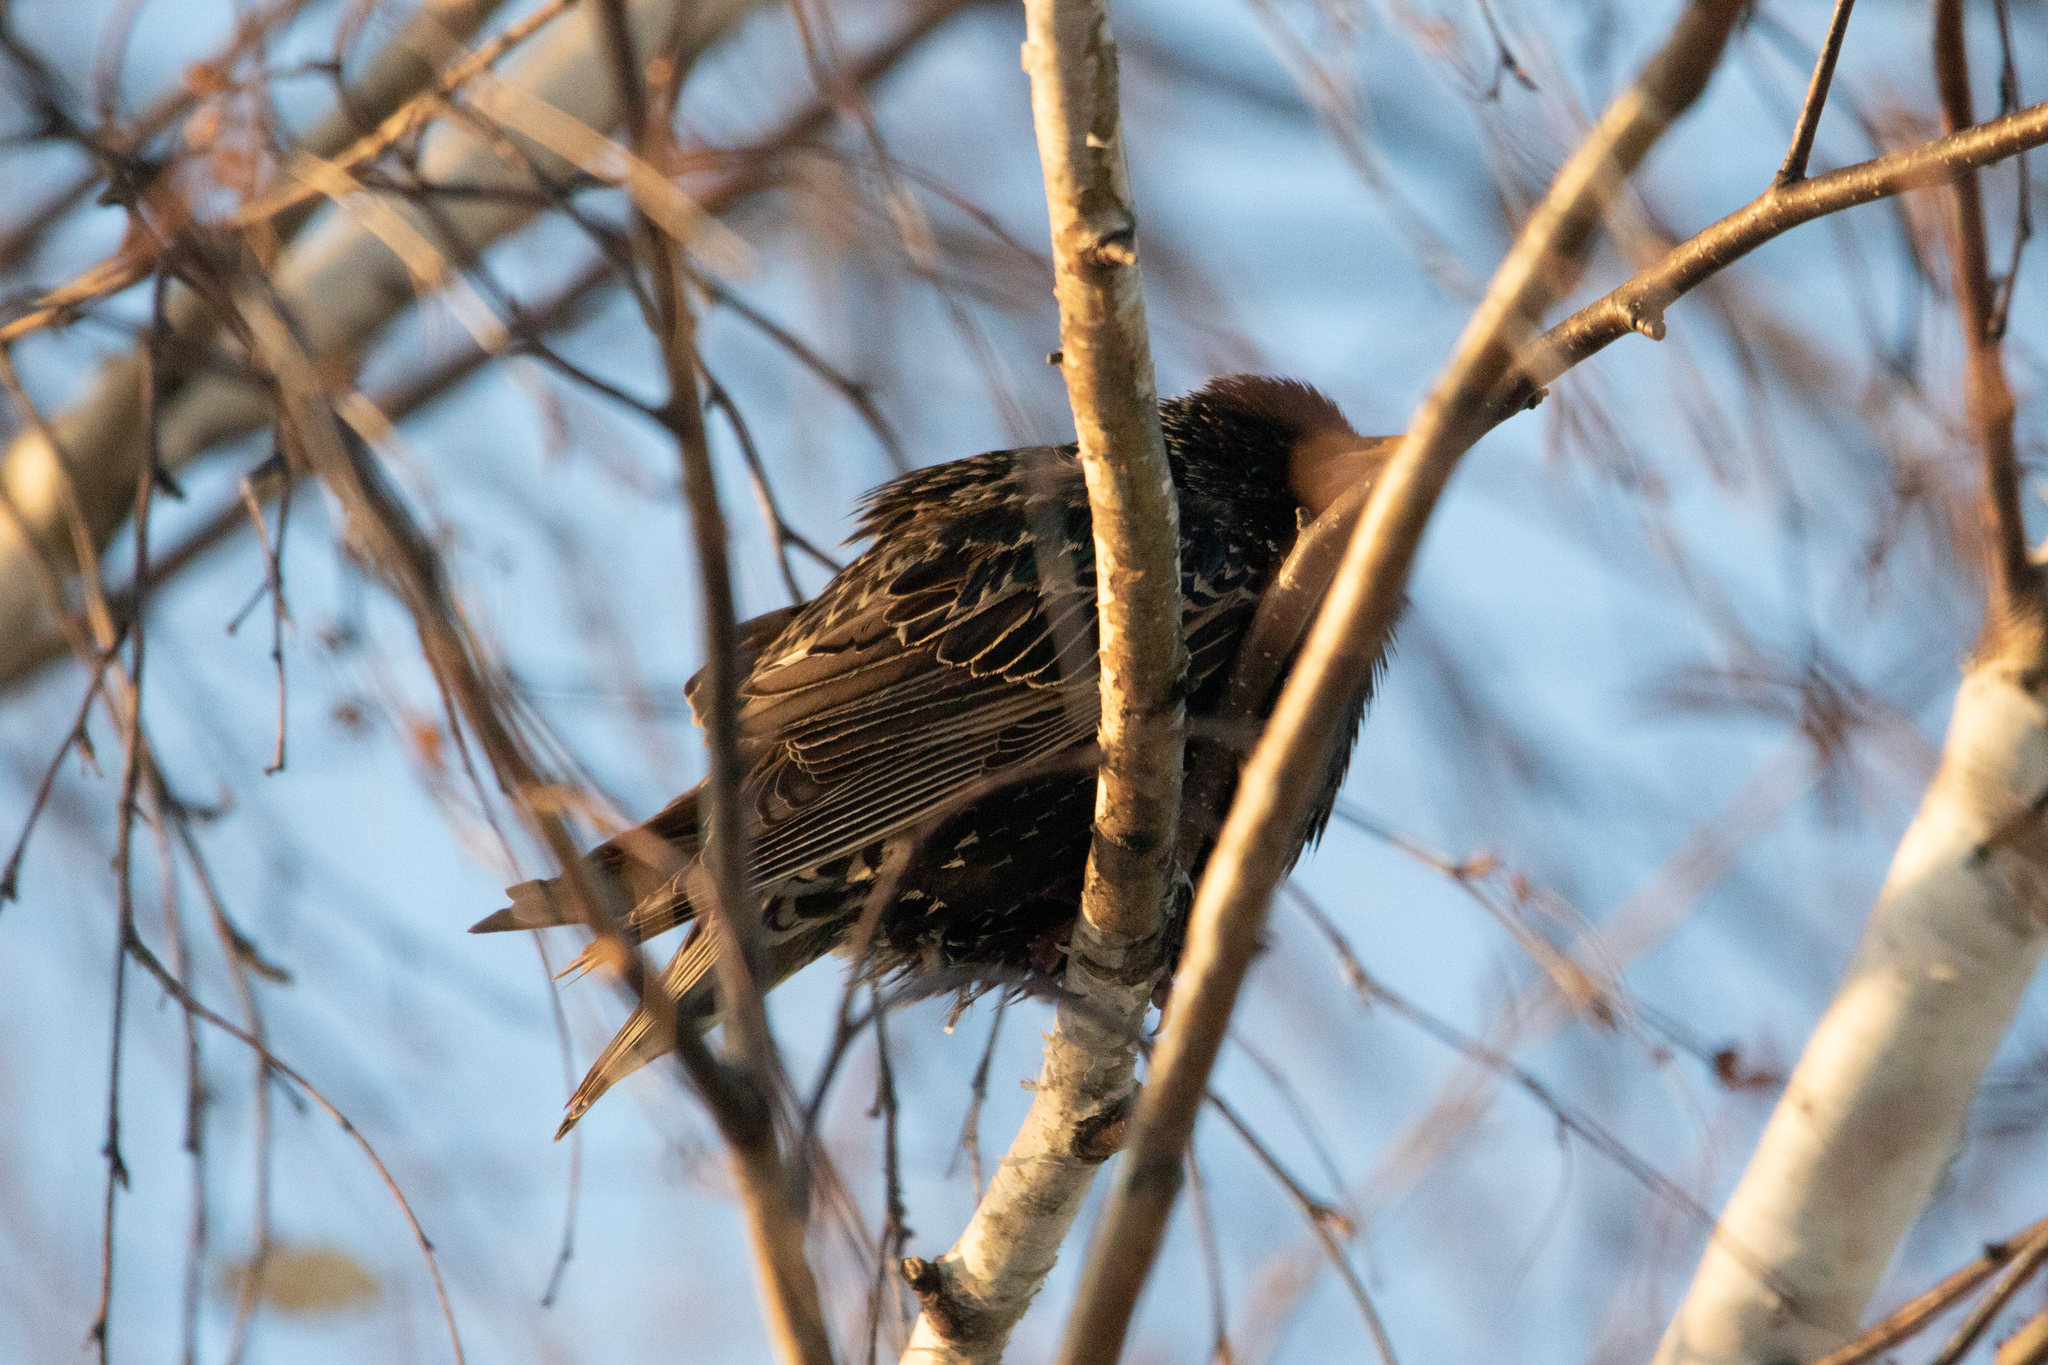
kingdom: Animalia
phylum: Chordata
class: Aves
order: Passeriformes
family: Sturnidae
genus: Sturnus
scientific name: Sturnus vulgaris
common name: Common starling
